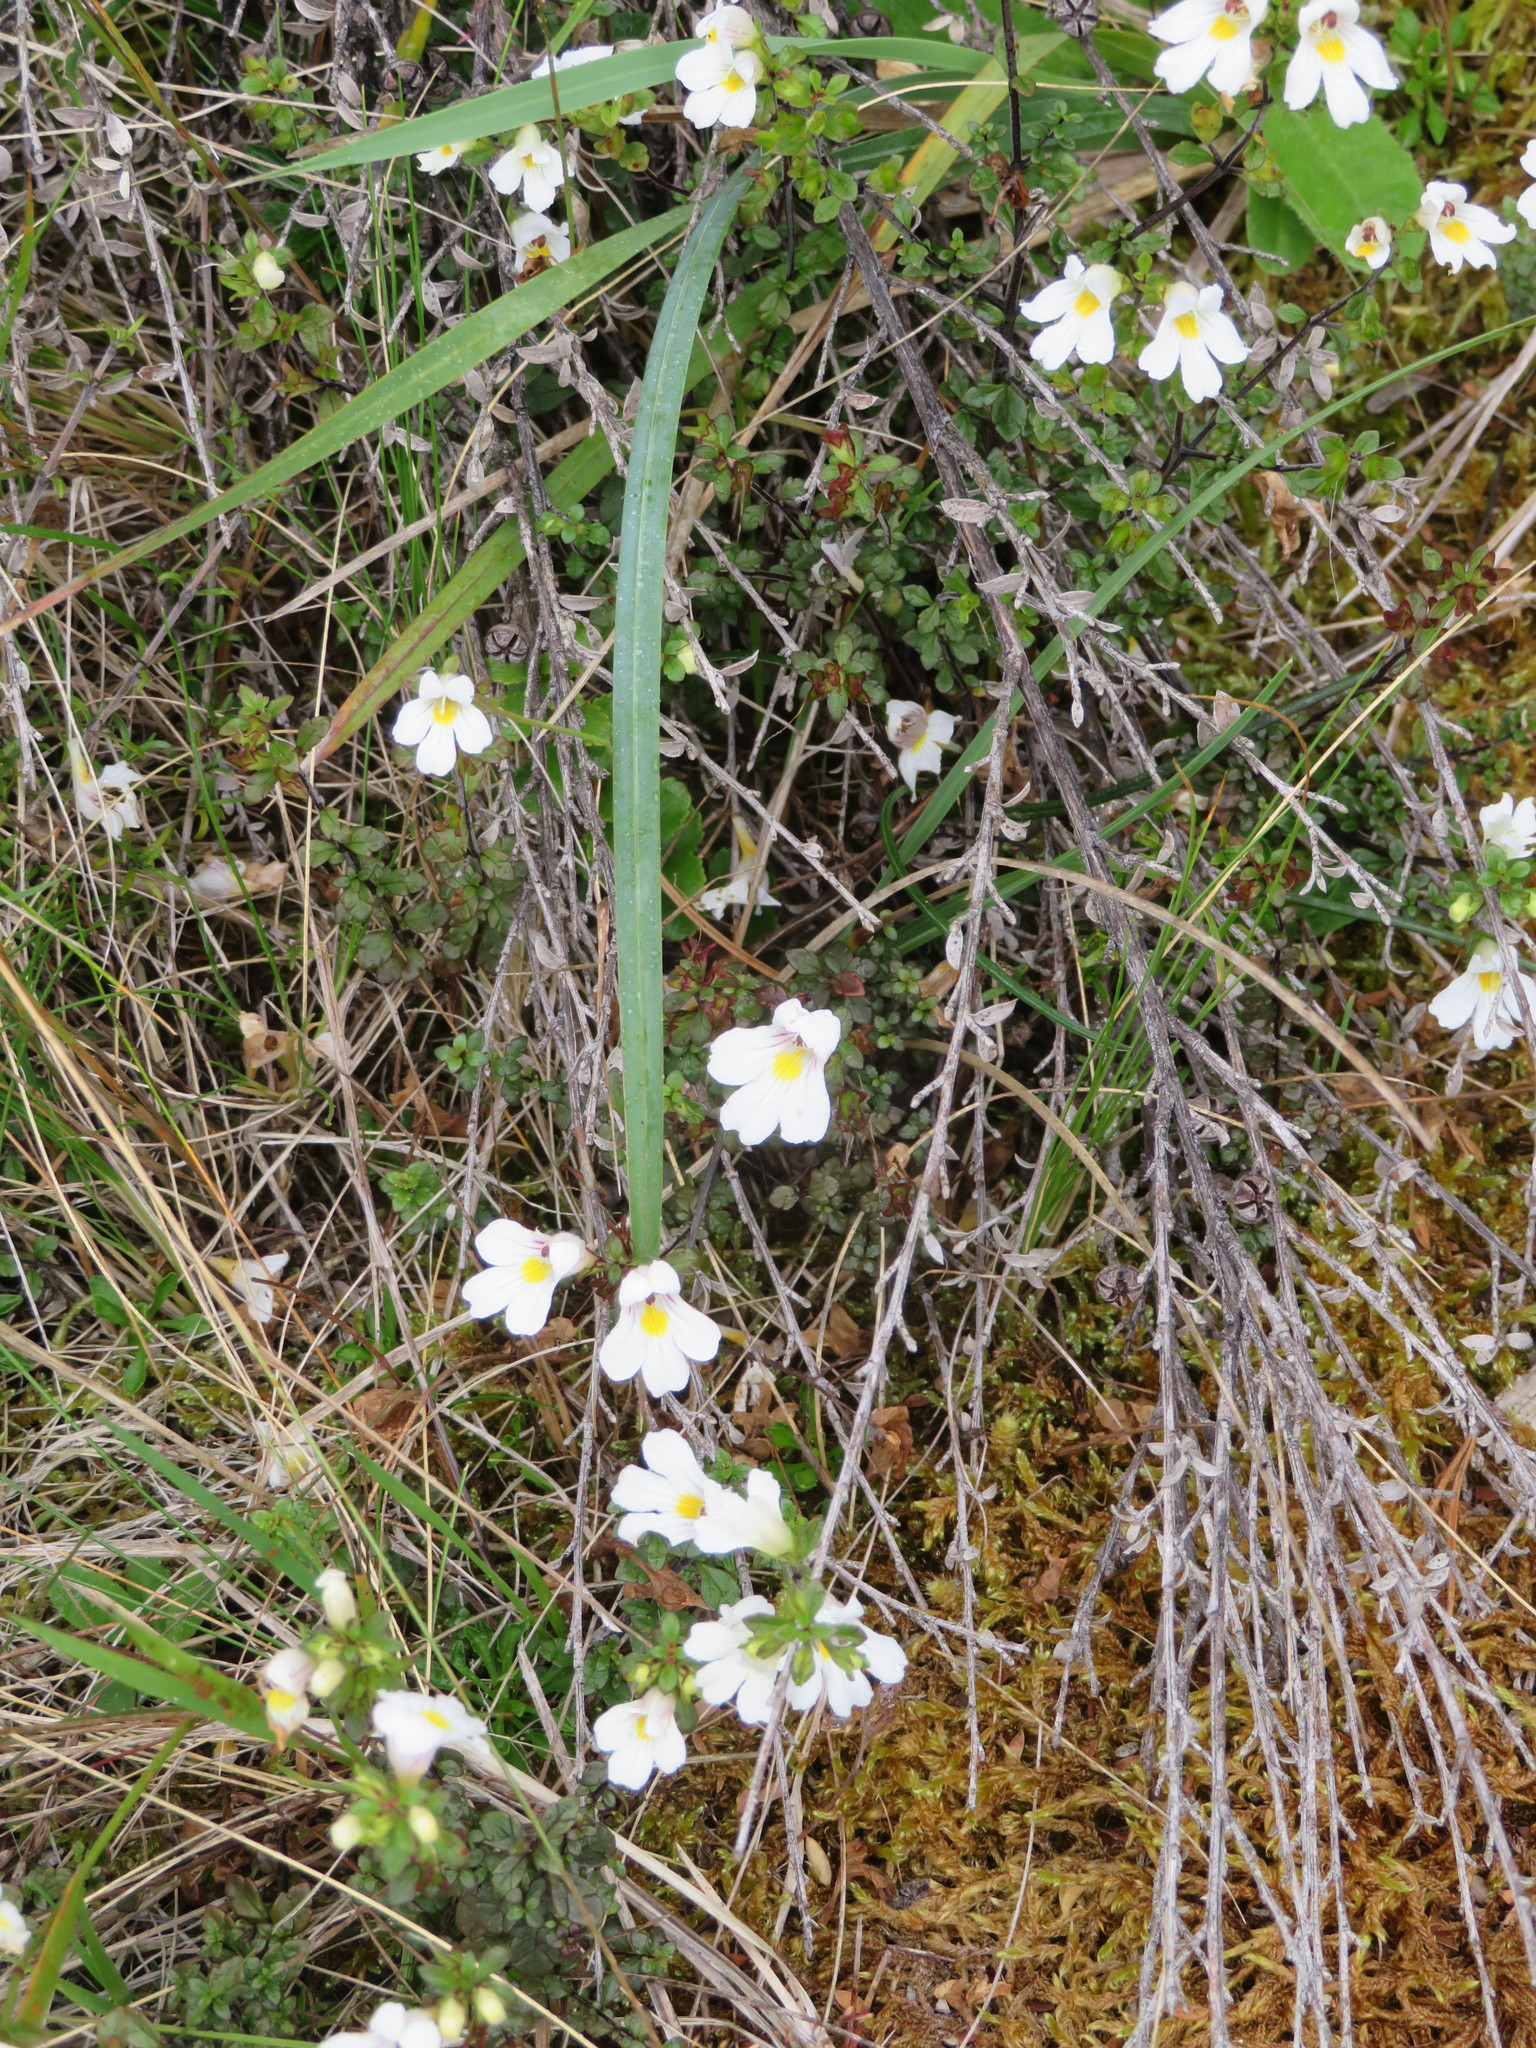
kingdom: Plantae
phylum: Tracheophyta
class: Magnoliopsida
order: Lamiales
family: Orobanchaceae
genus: Euphrasia
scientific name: Euphrasia cuneata
